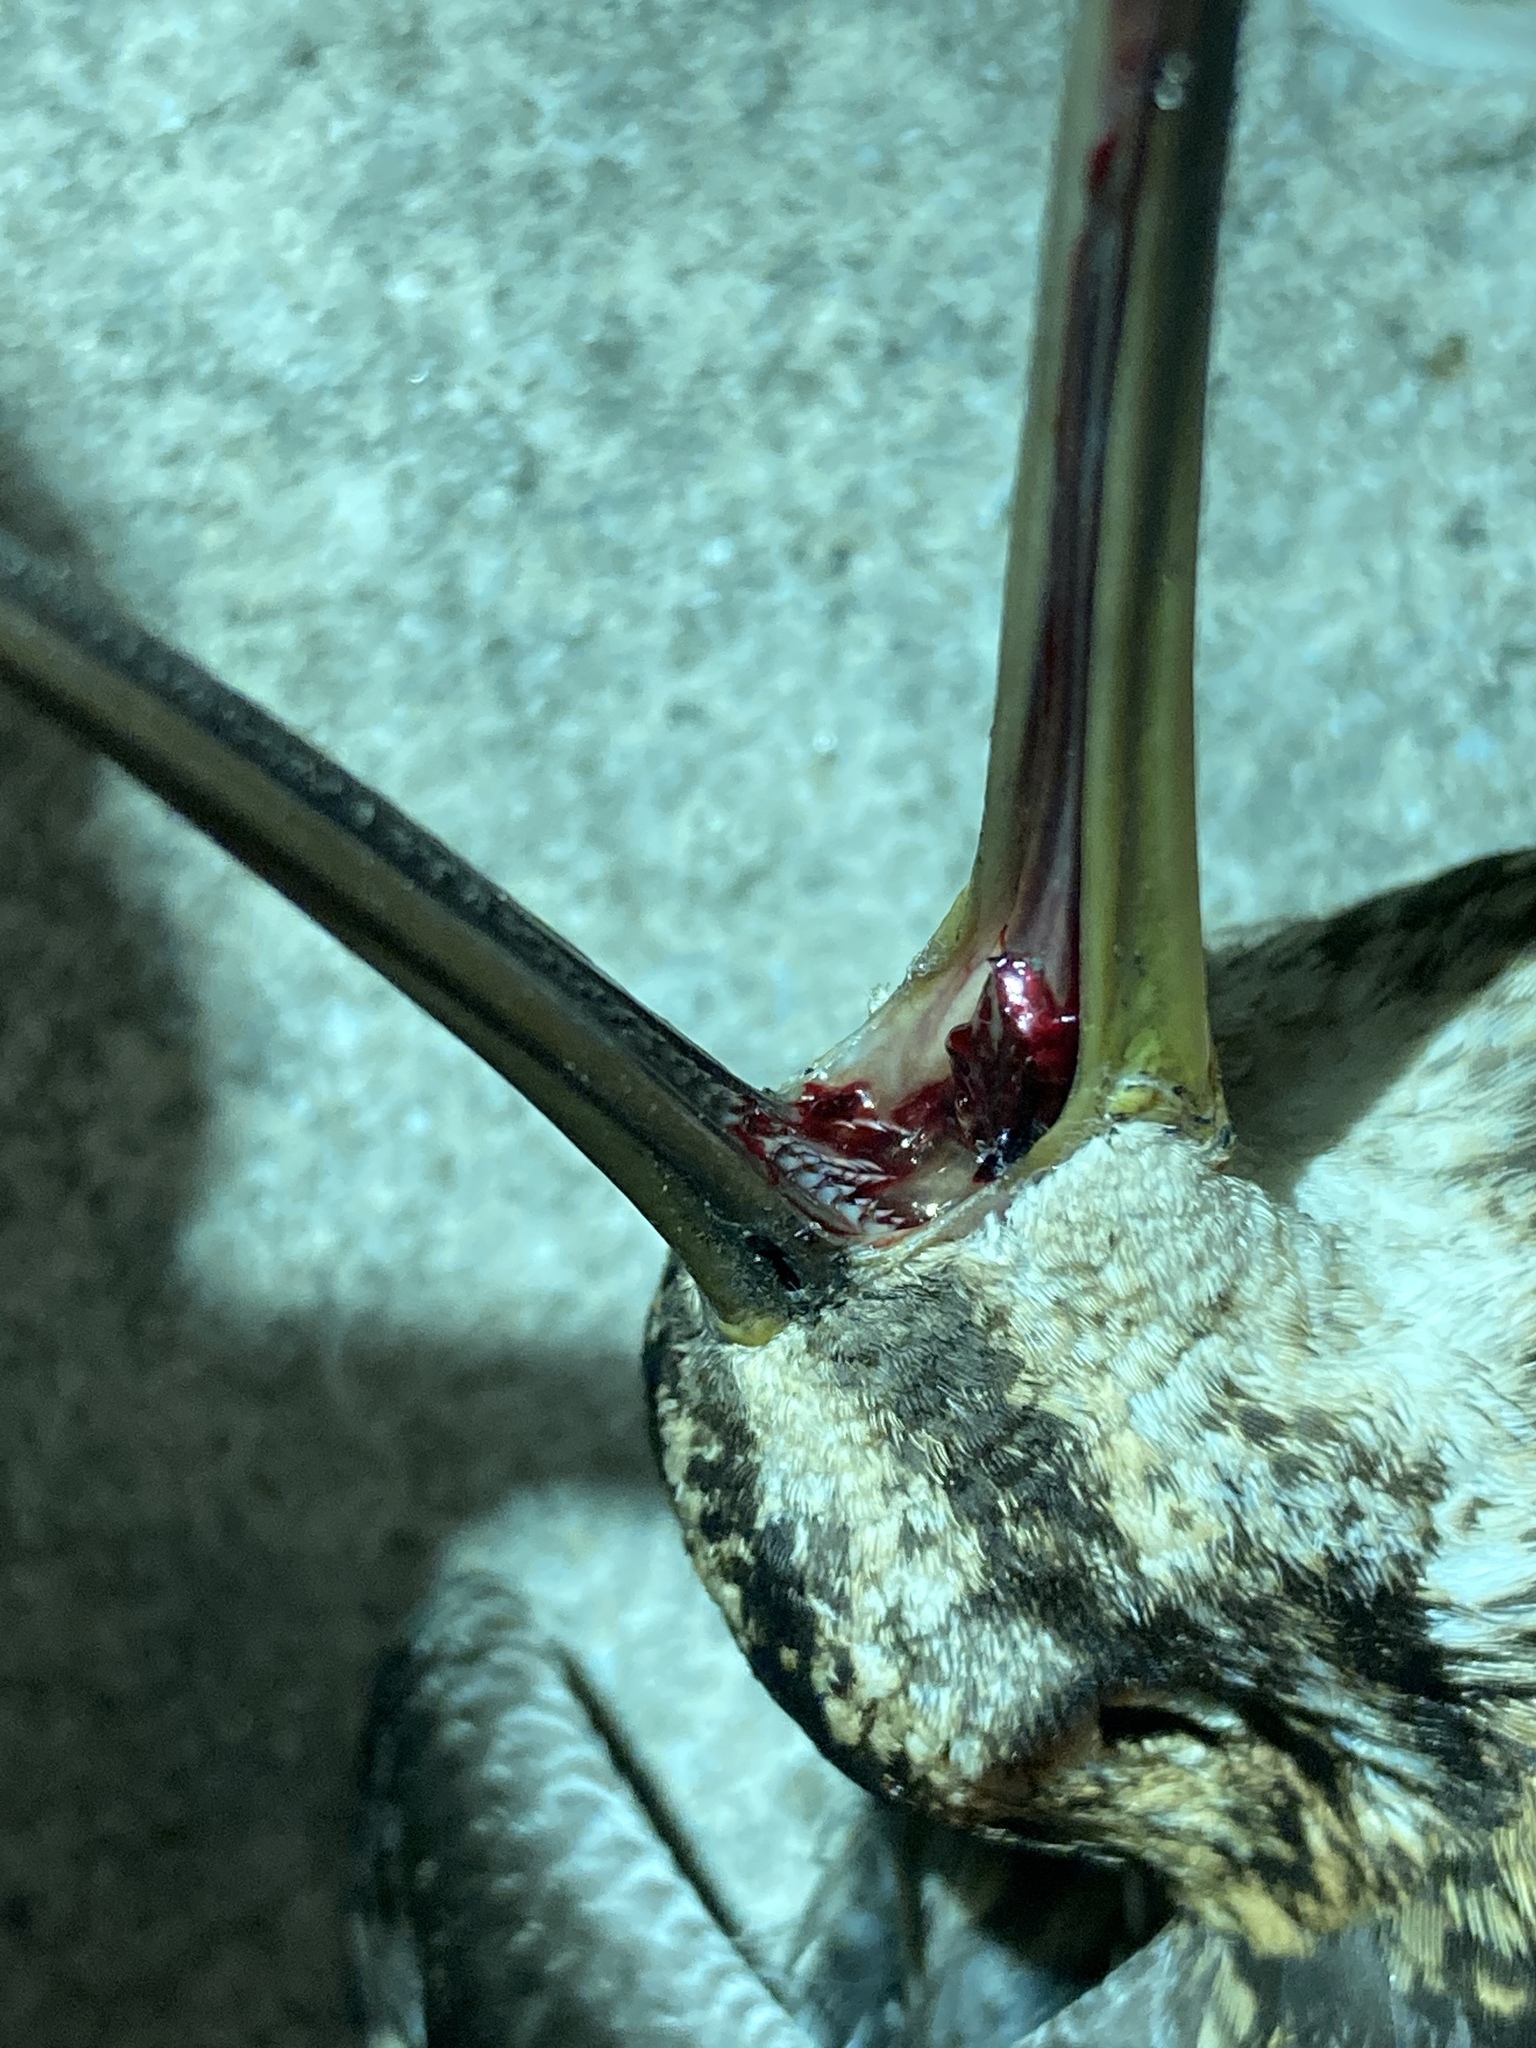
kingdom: Animalia
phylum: Chordata
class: Aves
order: Charadriiformes
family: Scolopacidae
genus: Gallinago
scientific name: Gallinago delicata
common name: Wilson's snipe
